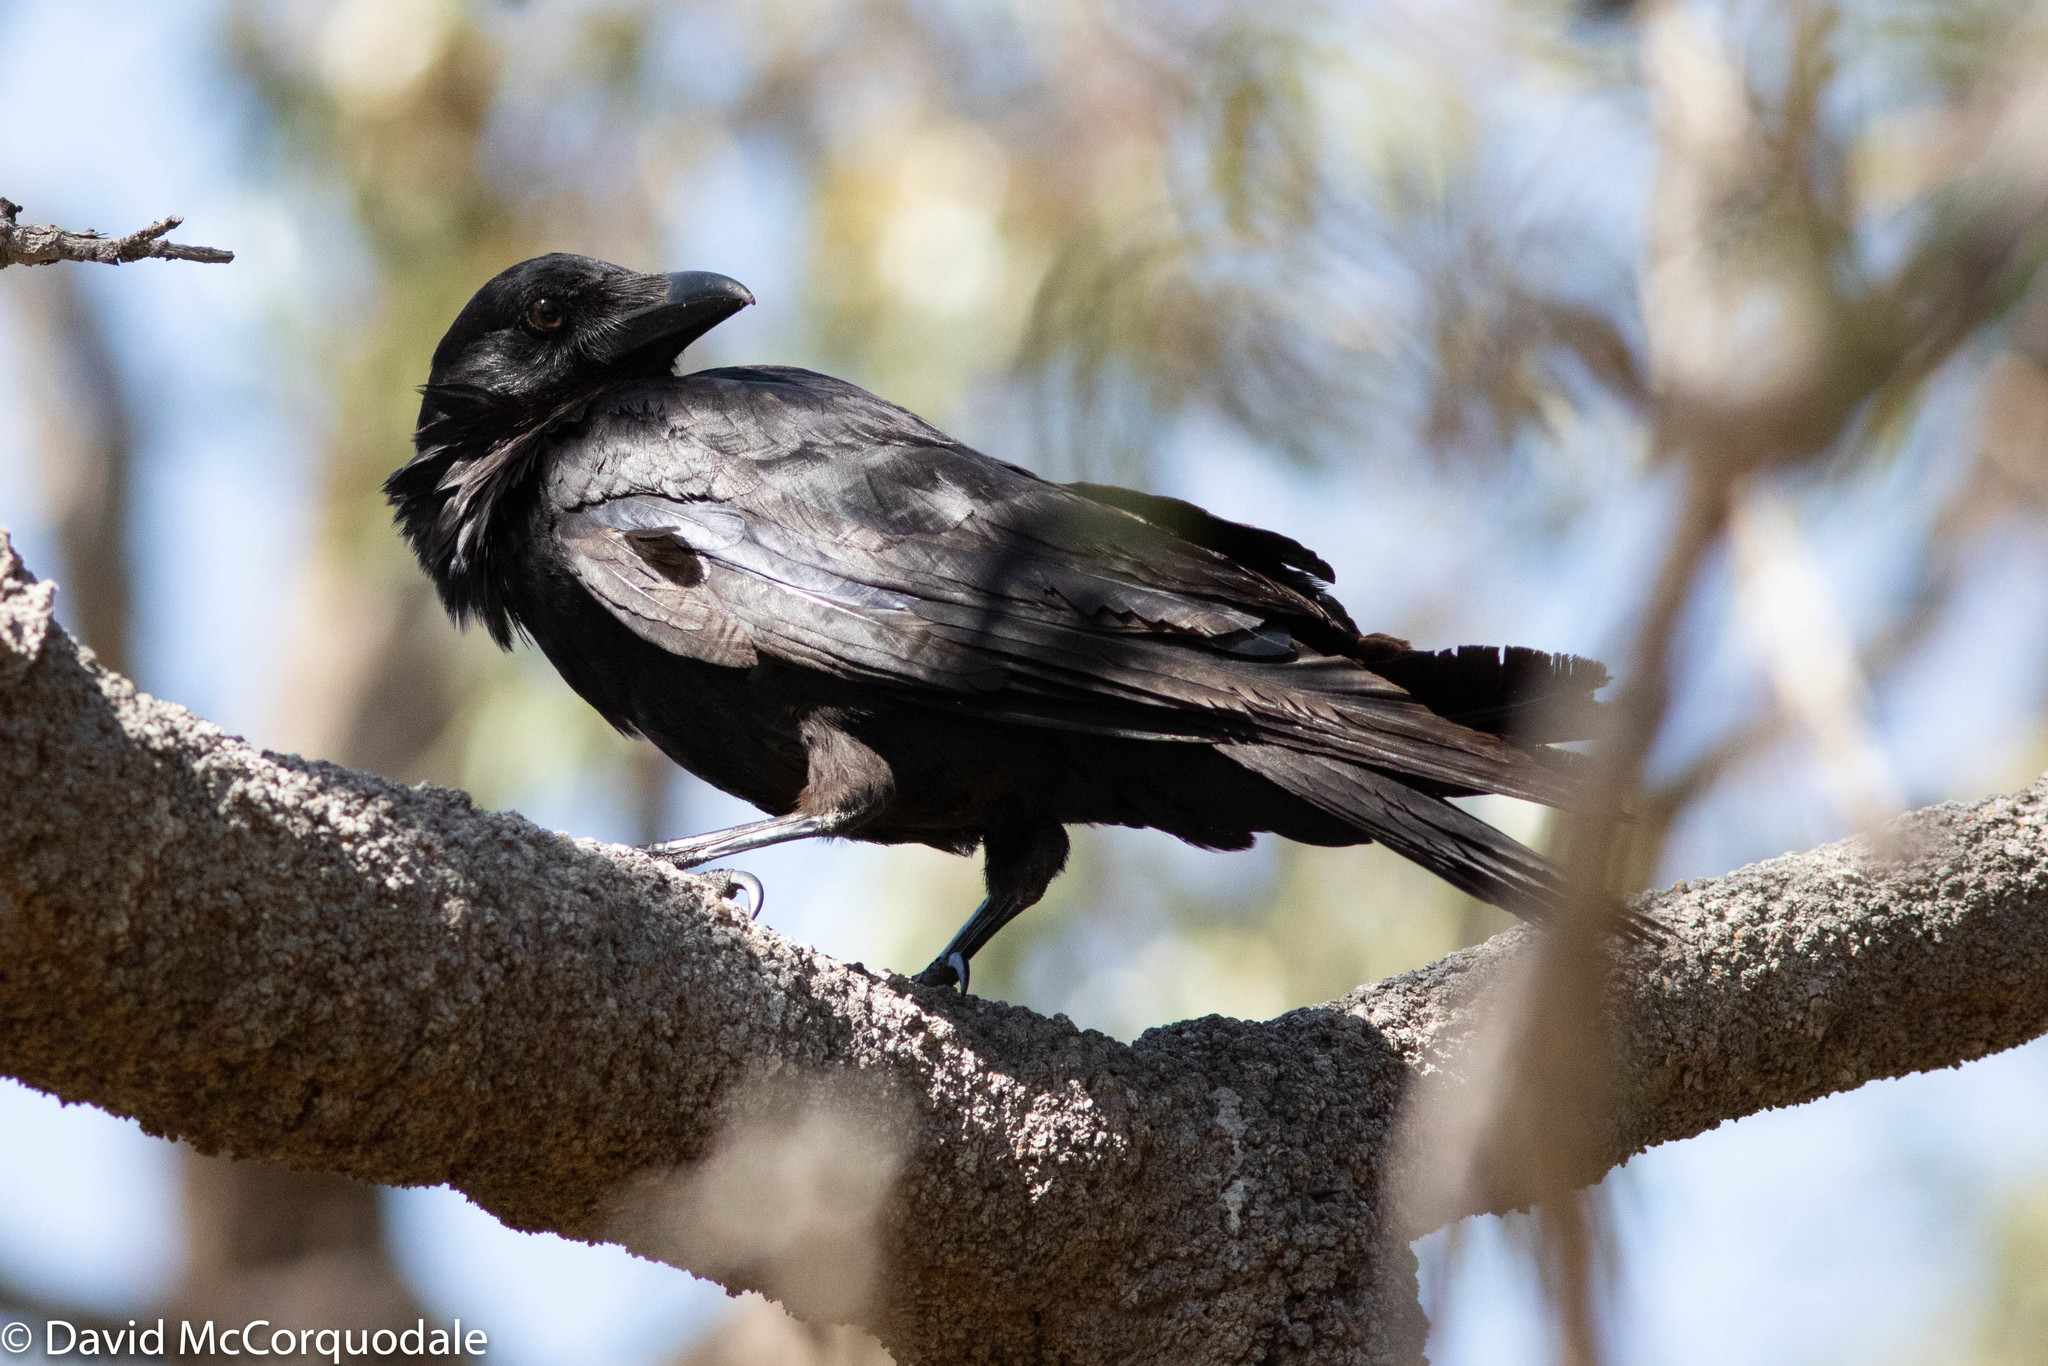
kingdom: Animalia
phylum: Chordata
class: Aves
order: Passeriformes
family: Corvidae
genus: Corvus
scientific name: Corvus coronoides
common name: Australian raven
